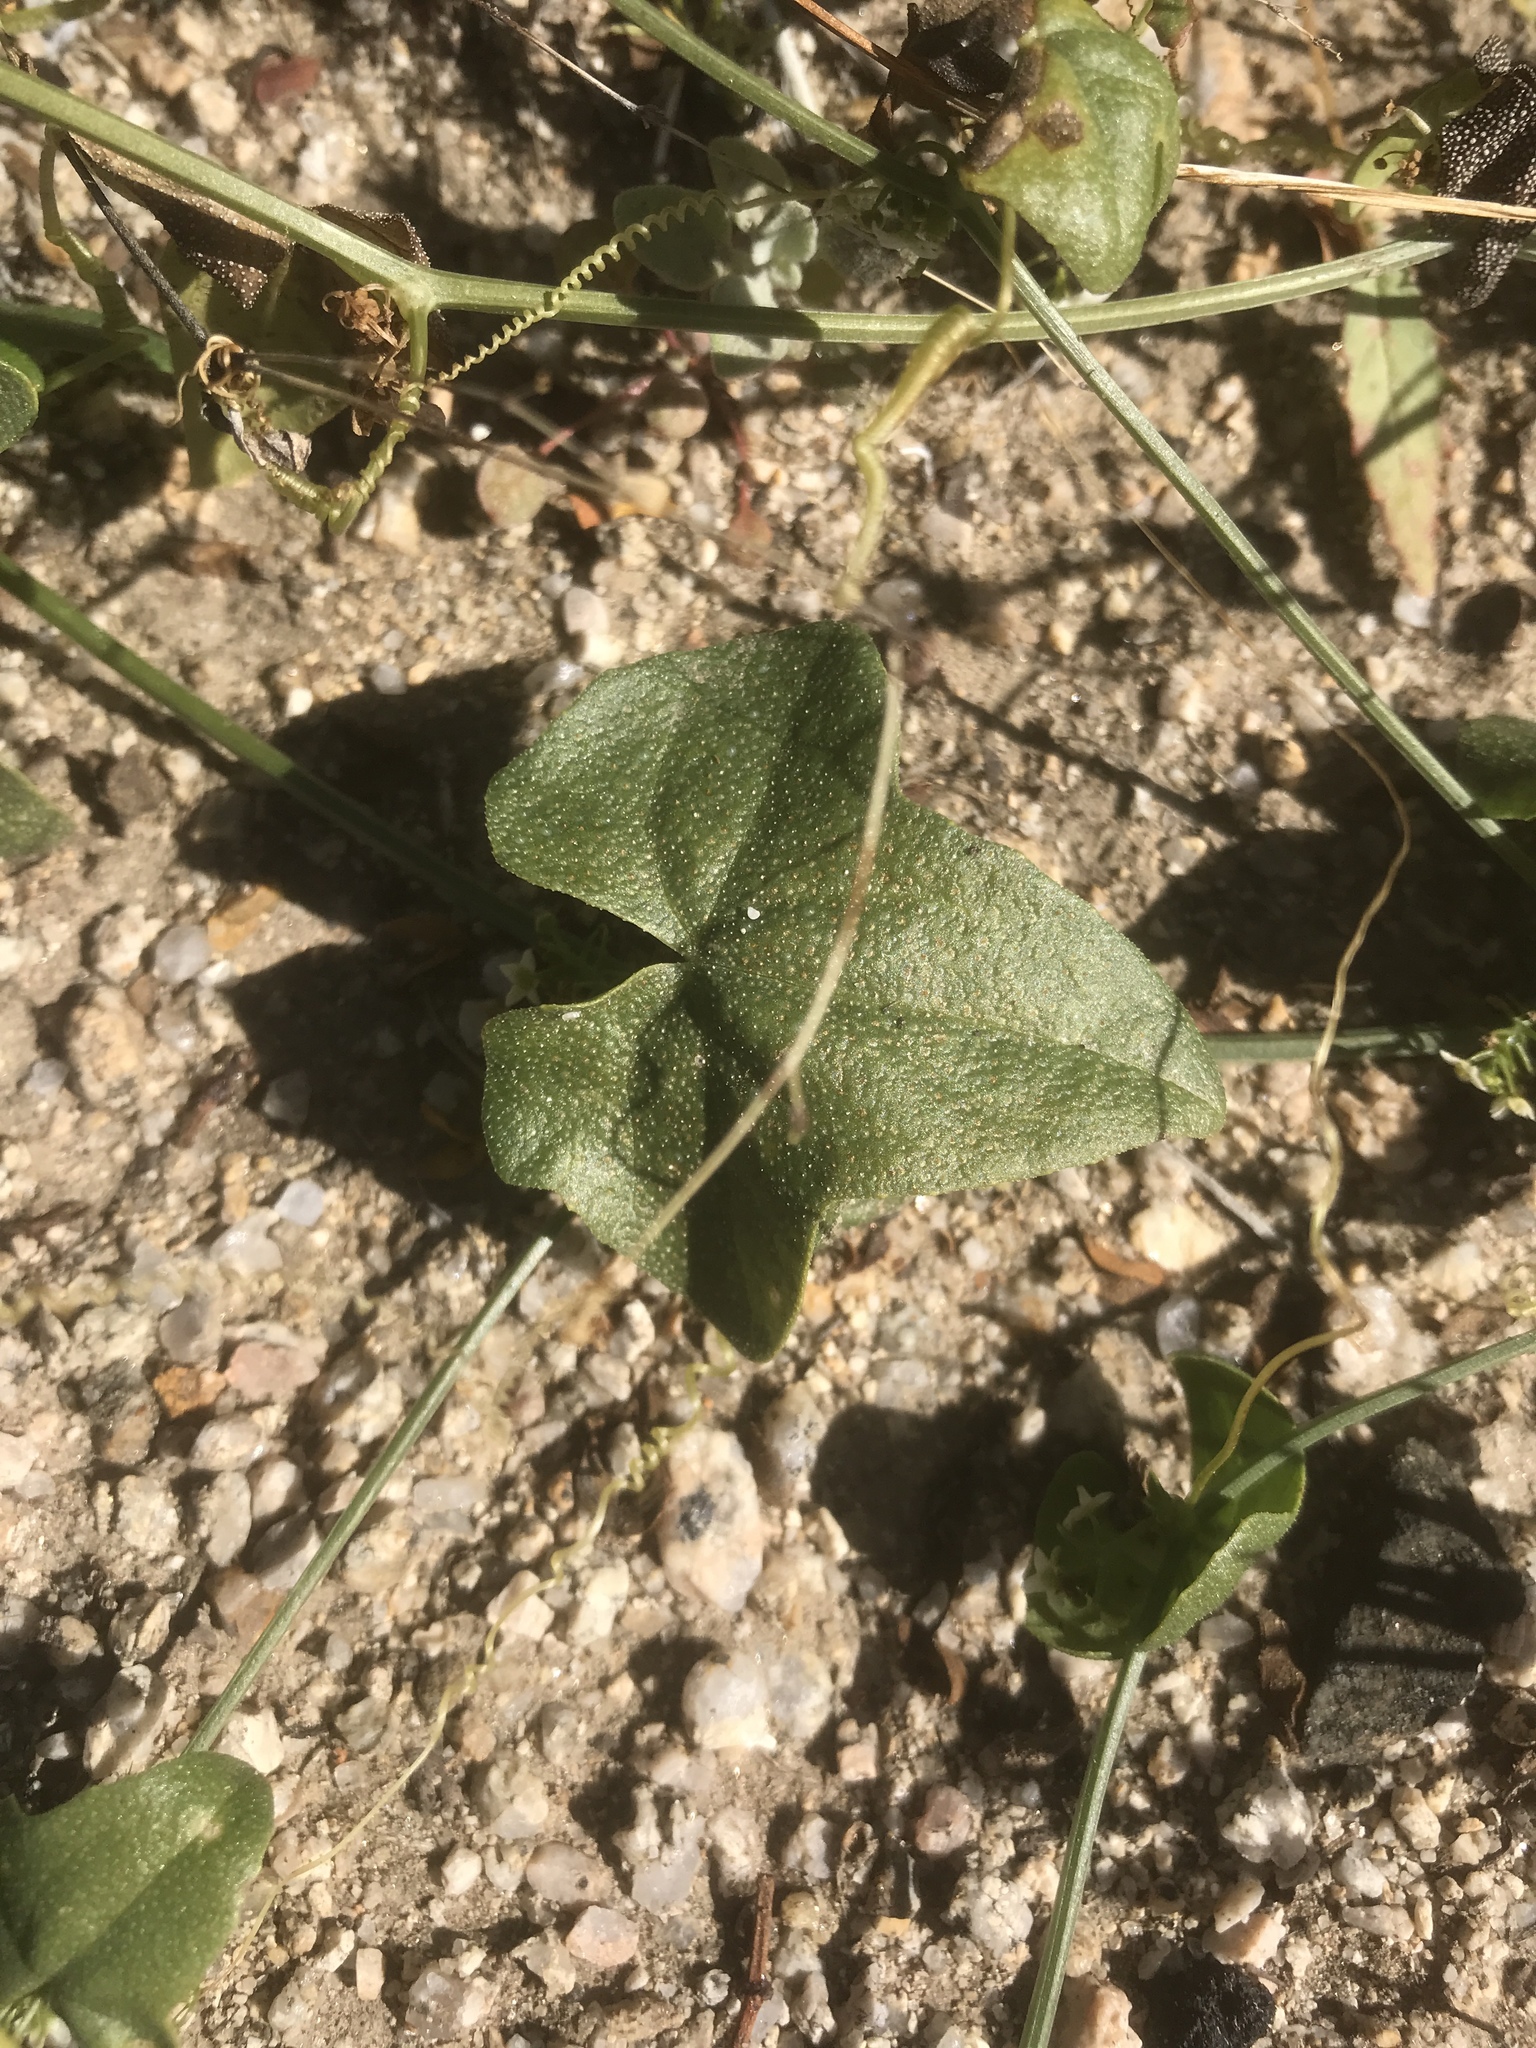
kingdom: Plantae
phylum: Tracheophyta
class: Magnoliopsida
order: Cucurbitales
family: Cucurbitaceae
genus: Echinopepon
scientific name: Echinopepon bigelovii
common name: Desert starvine
